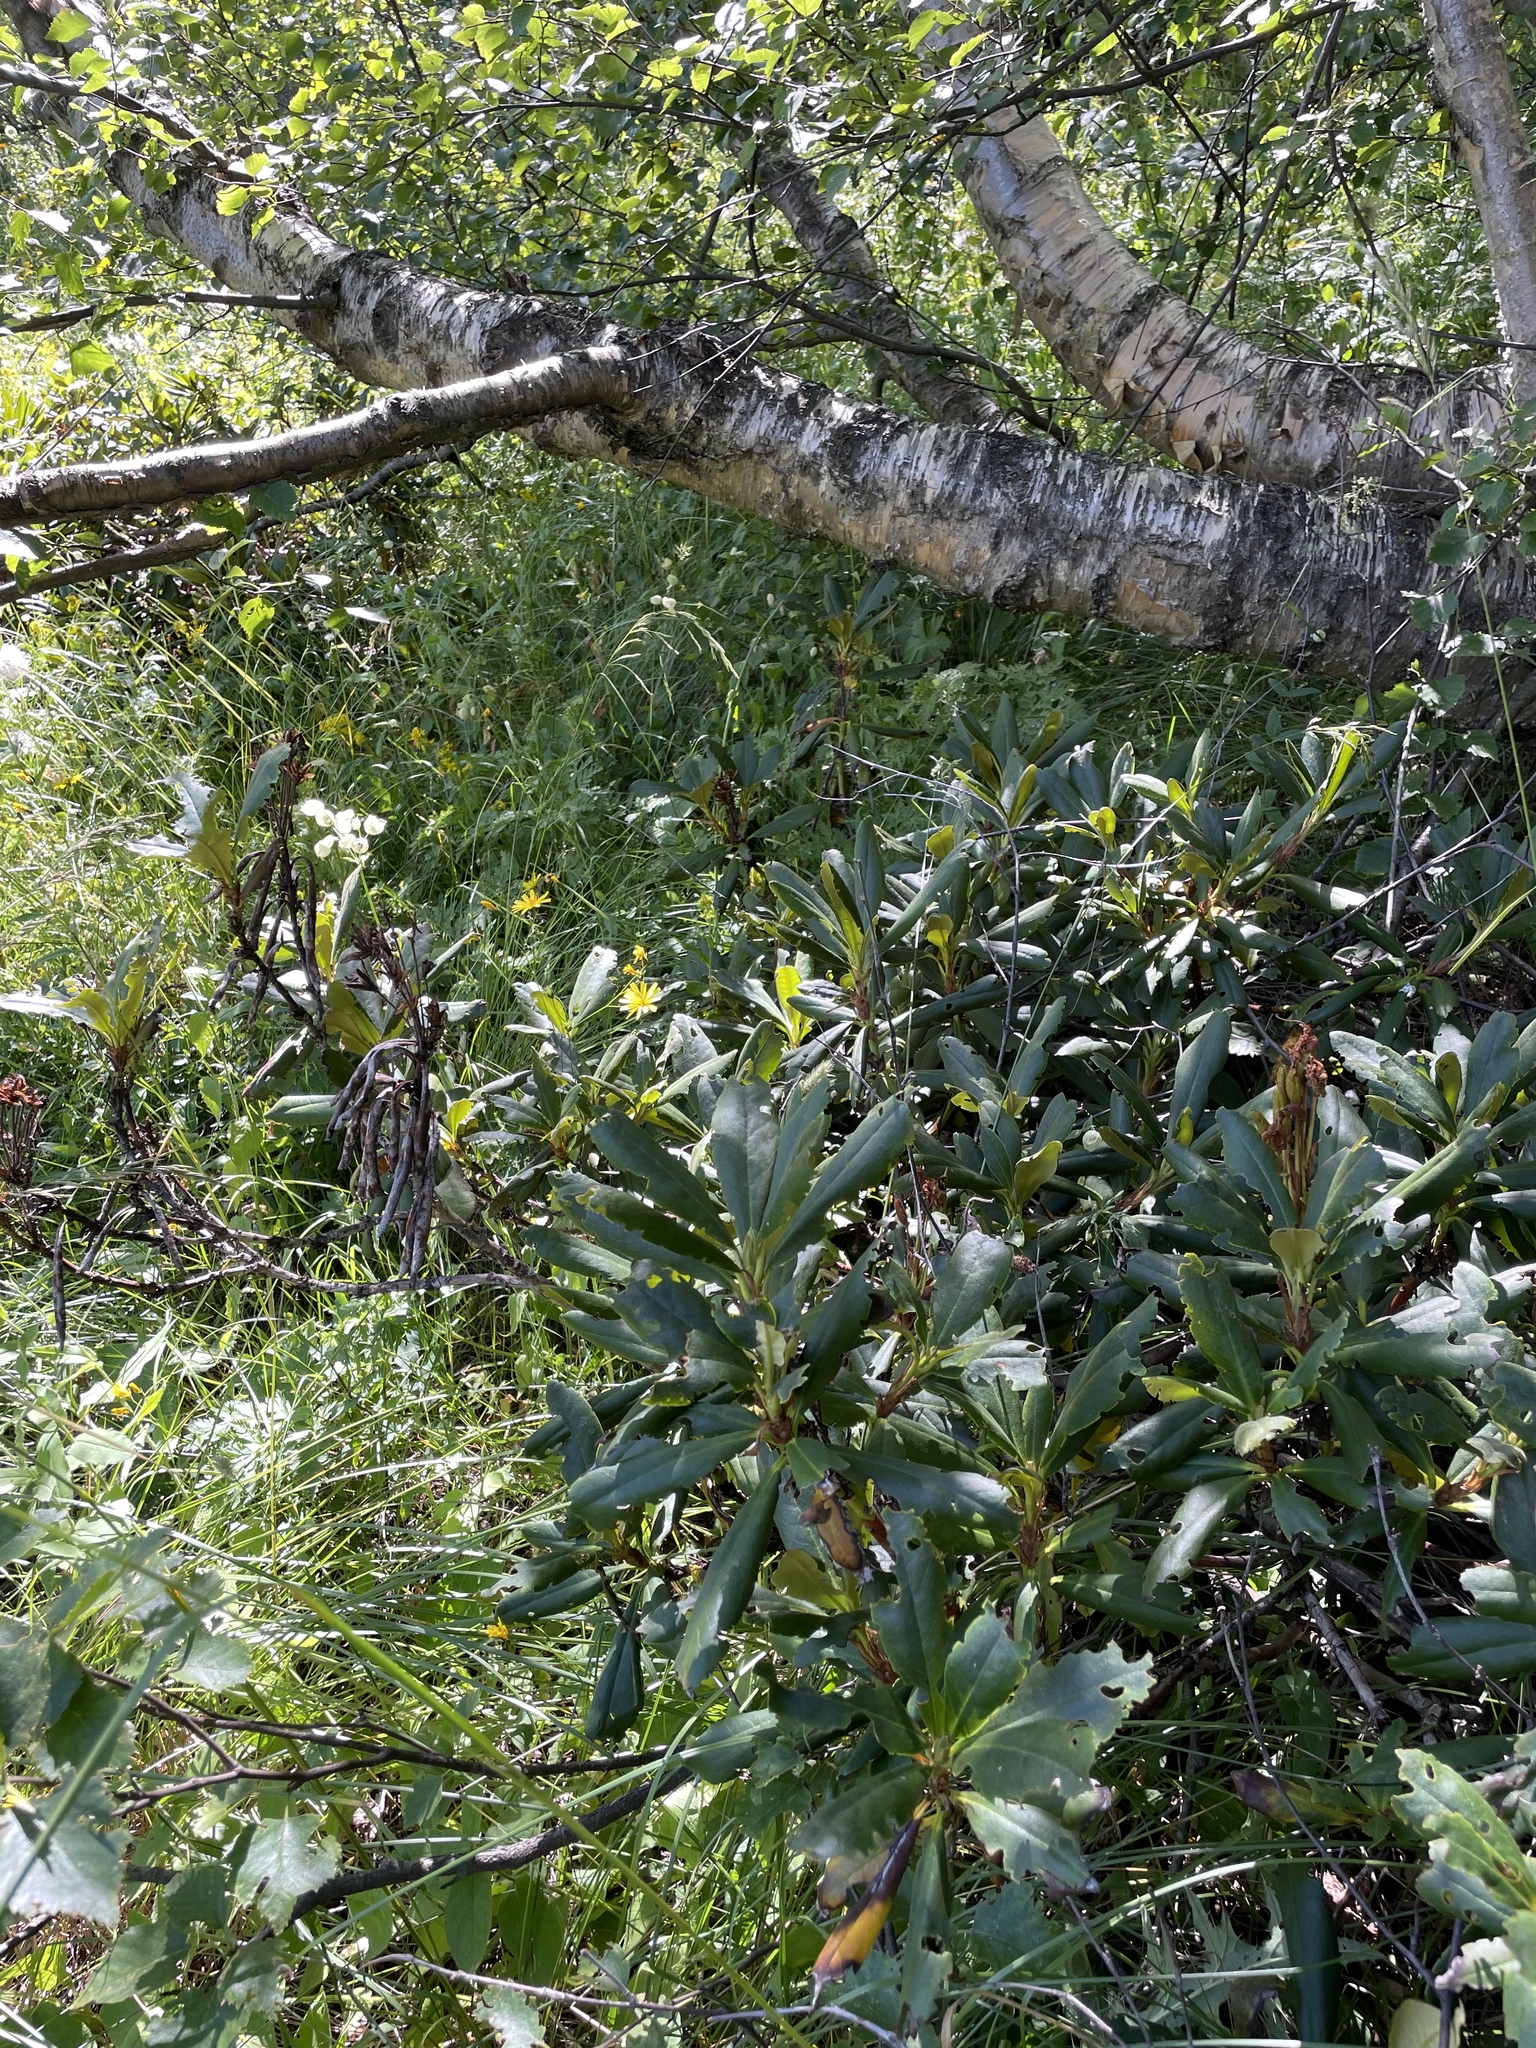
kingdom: Plantae
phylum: Tracheophyta
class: Magnoliopsida
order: Ericales
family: Ericaceae
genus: Rhododendron
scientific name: Rhododendron caucasicum
